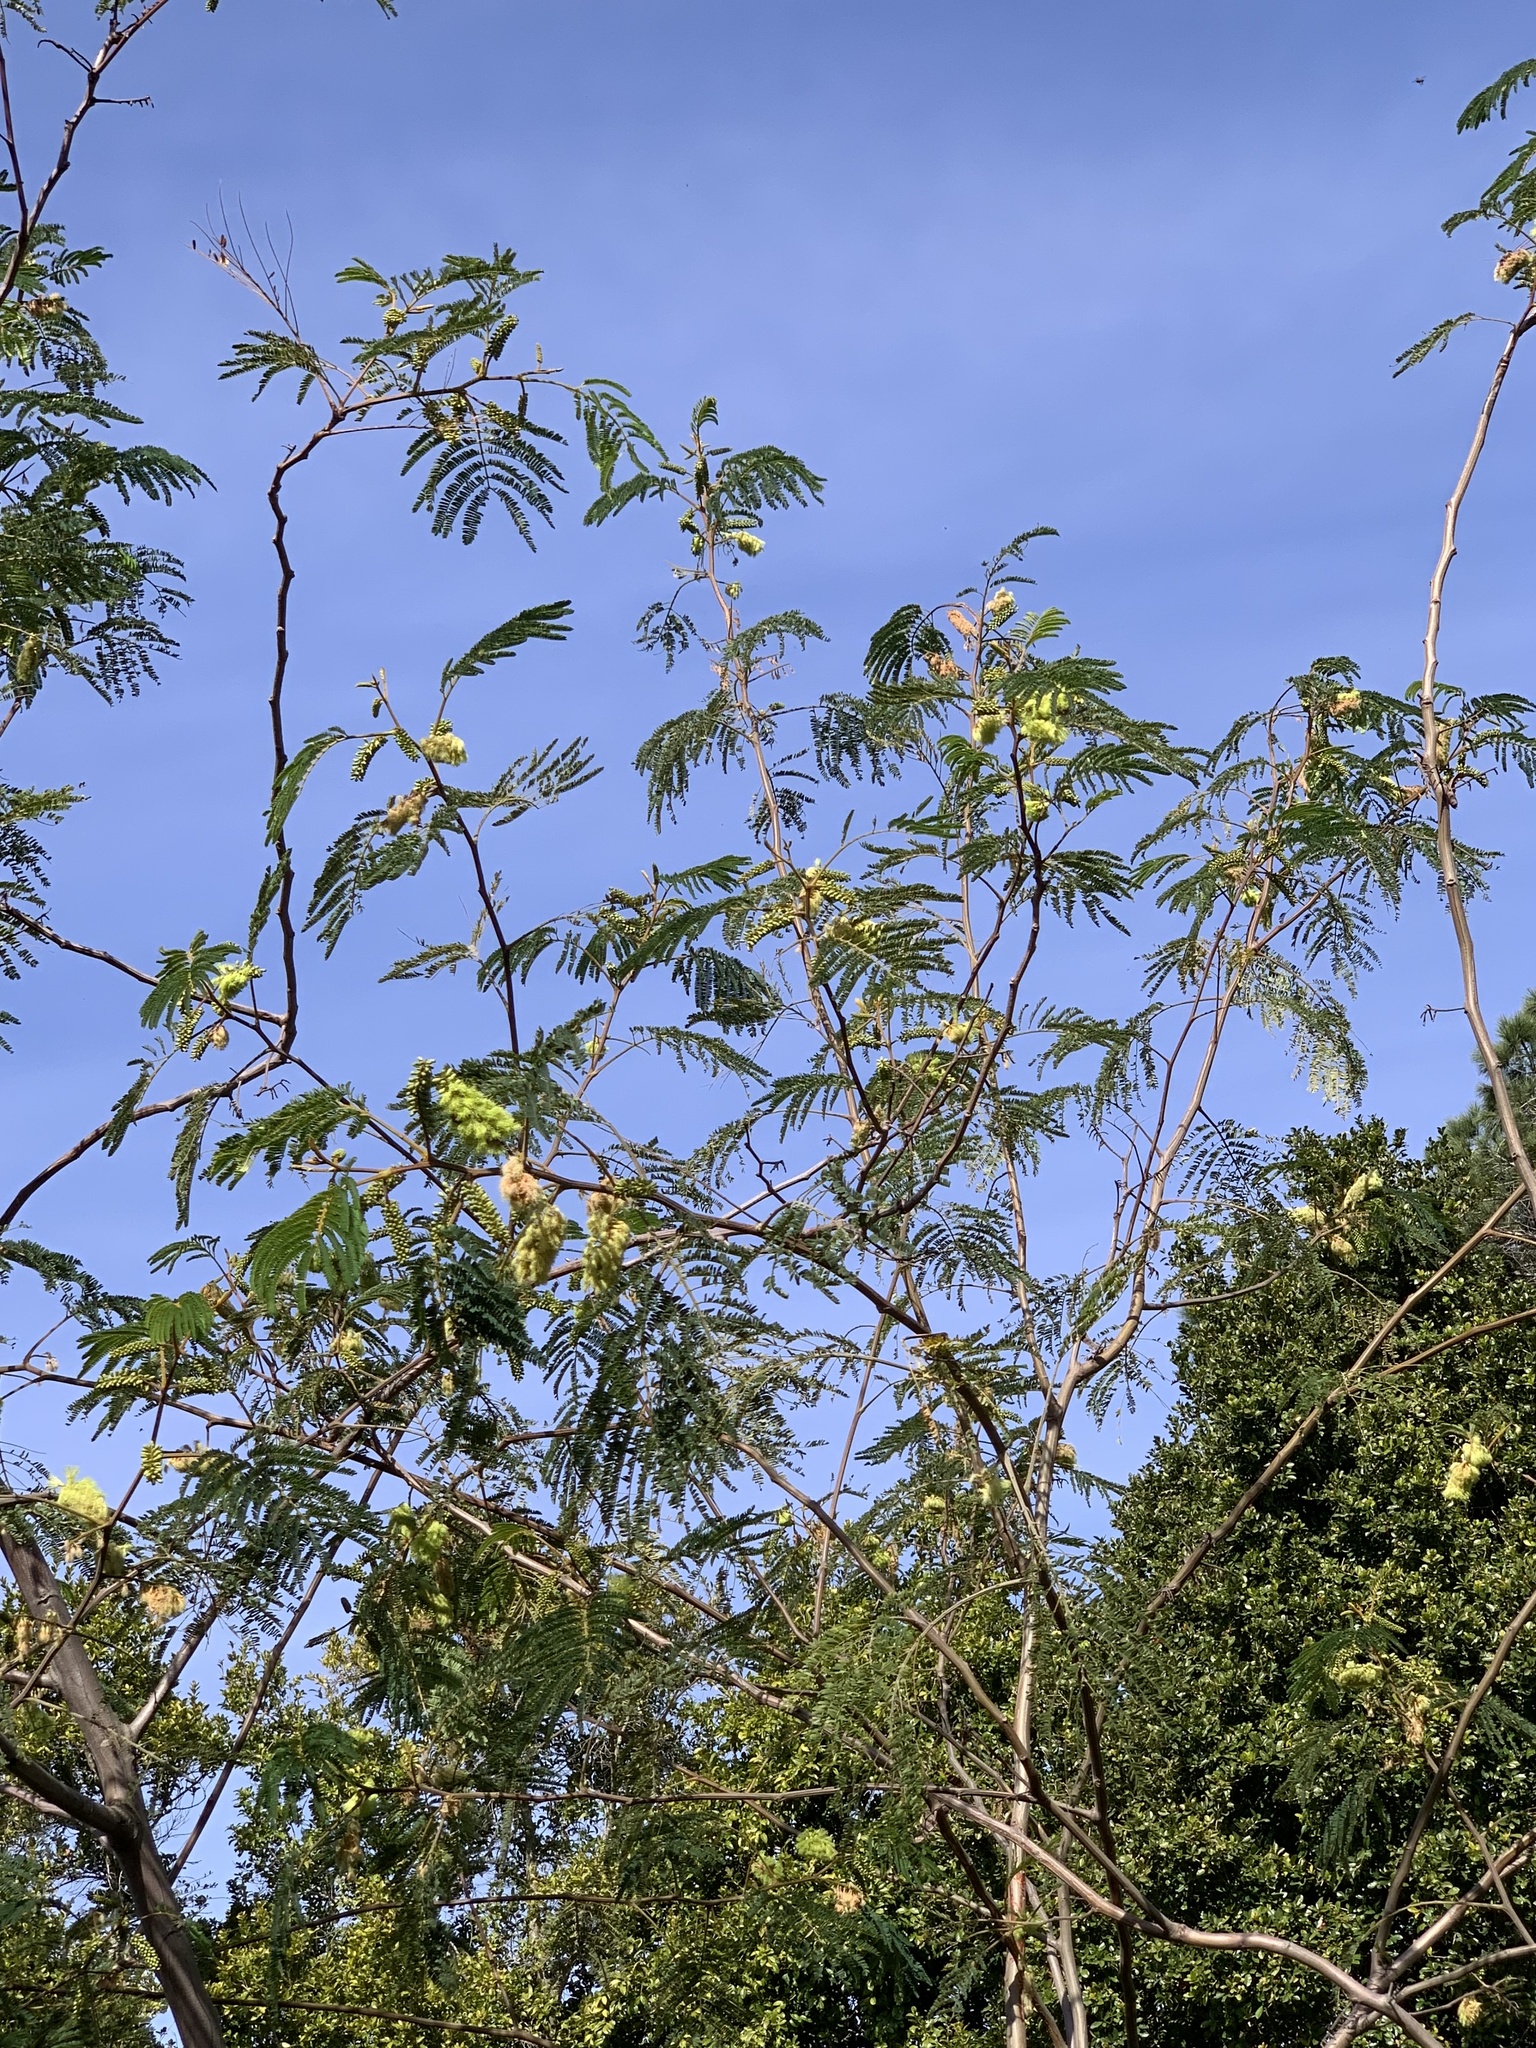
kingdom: Plantae
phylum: Tracheophyta
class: Magnoliopsida
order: Fabales
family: Fabaceae
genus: Paraserianthes
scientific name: Paraserianthes lophantha
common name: Plume albizia
